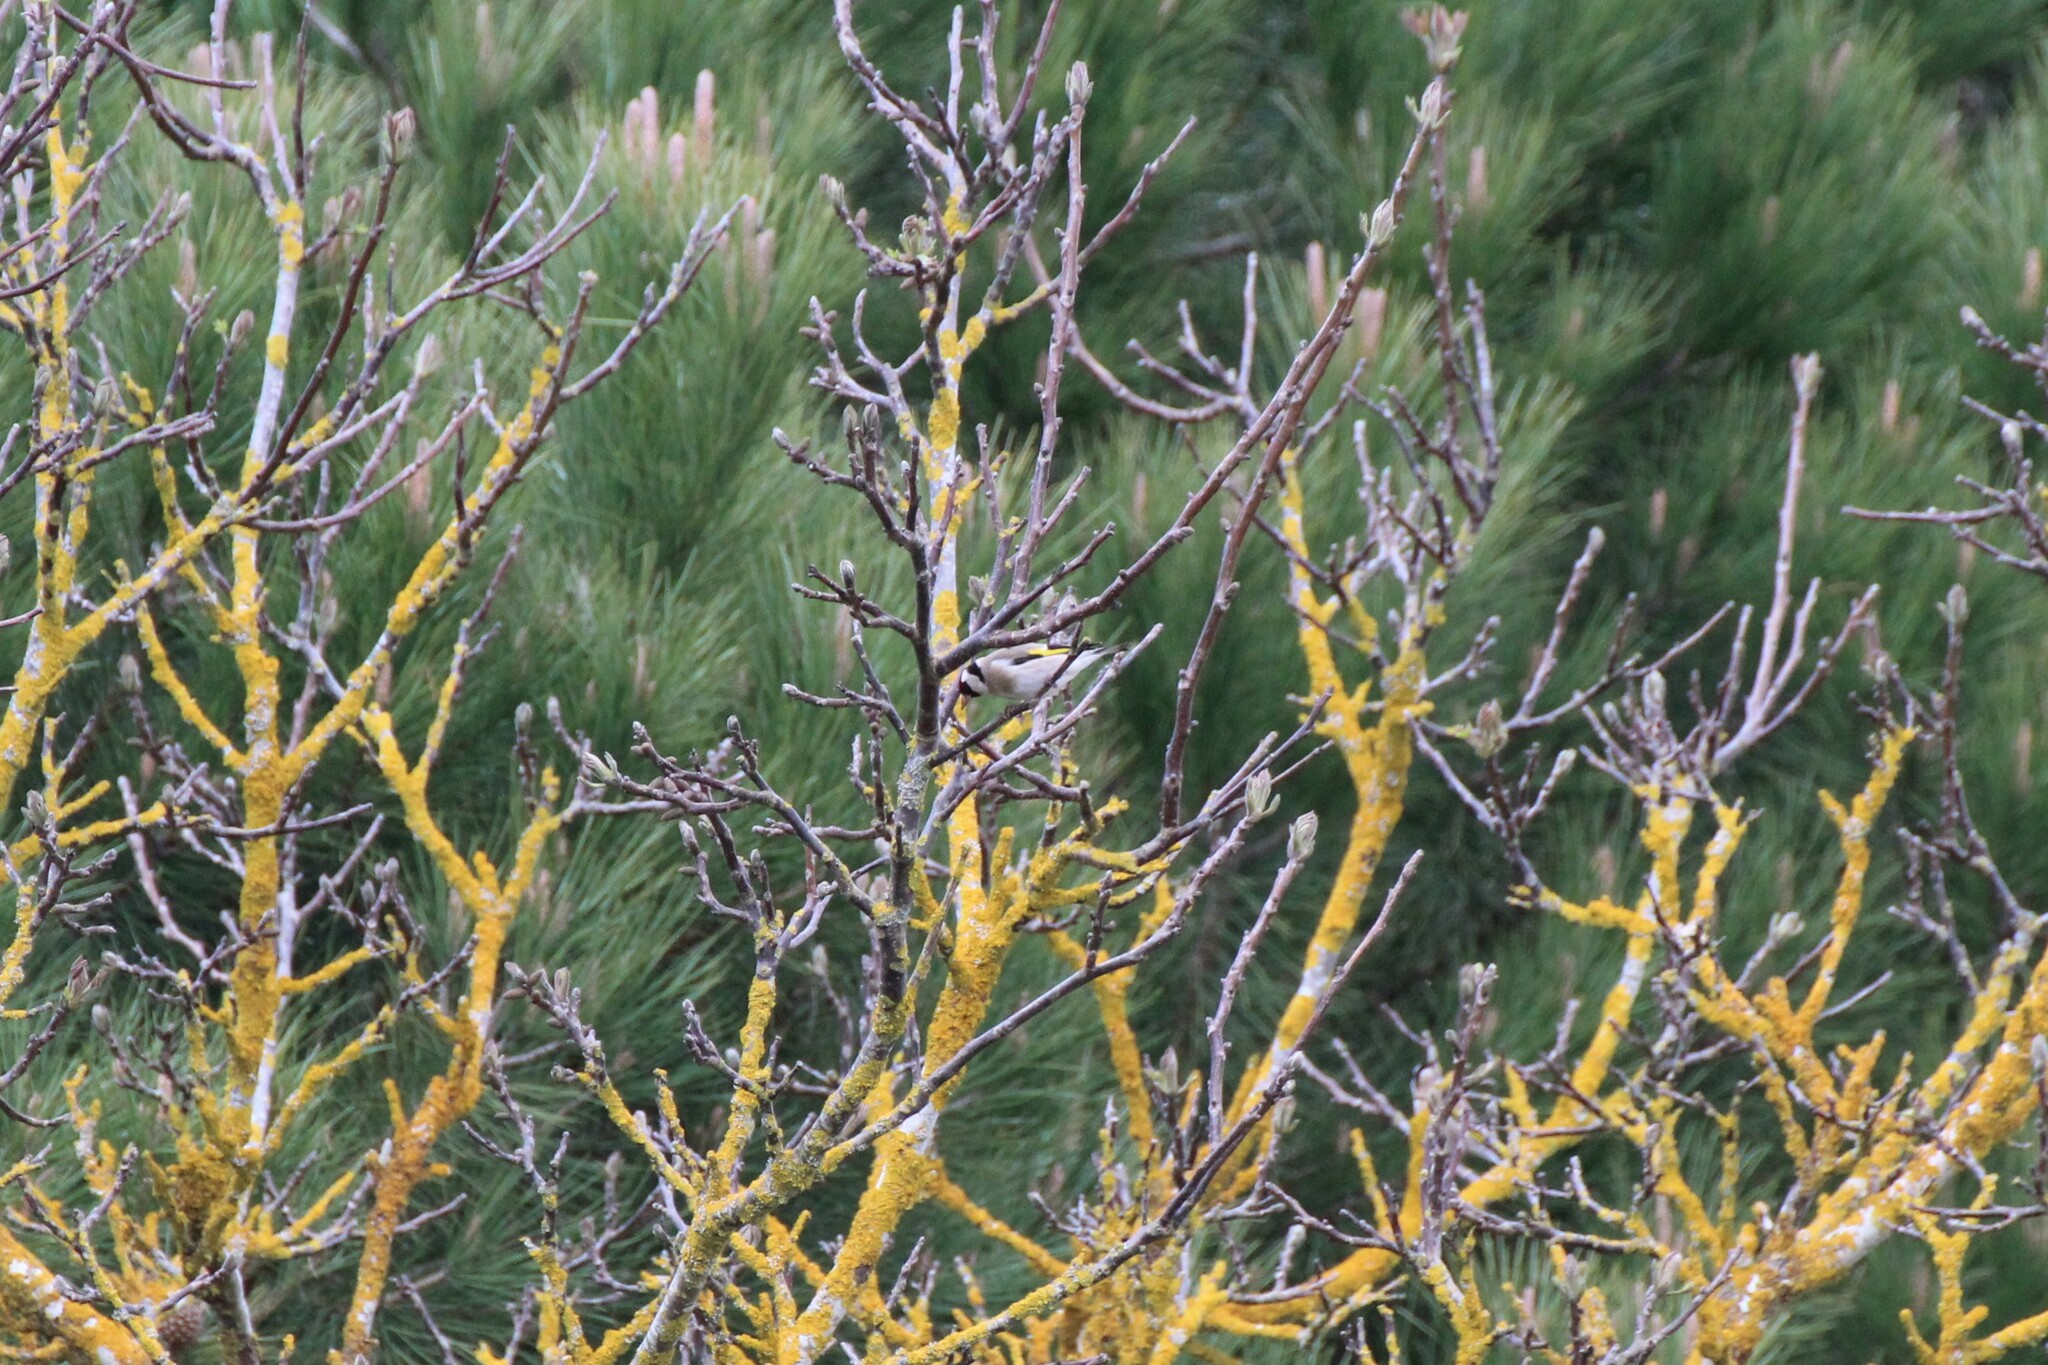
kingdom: Animalia
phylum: Chordata
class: Aves
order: Passeriformes
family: Fringillidae
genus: Carduelis
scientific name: Carduelis carduelis
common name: European goldfinch
